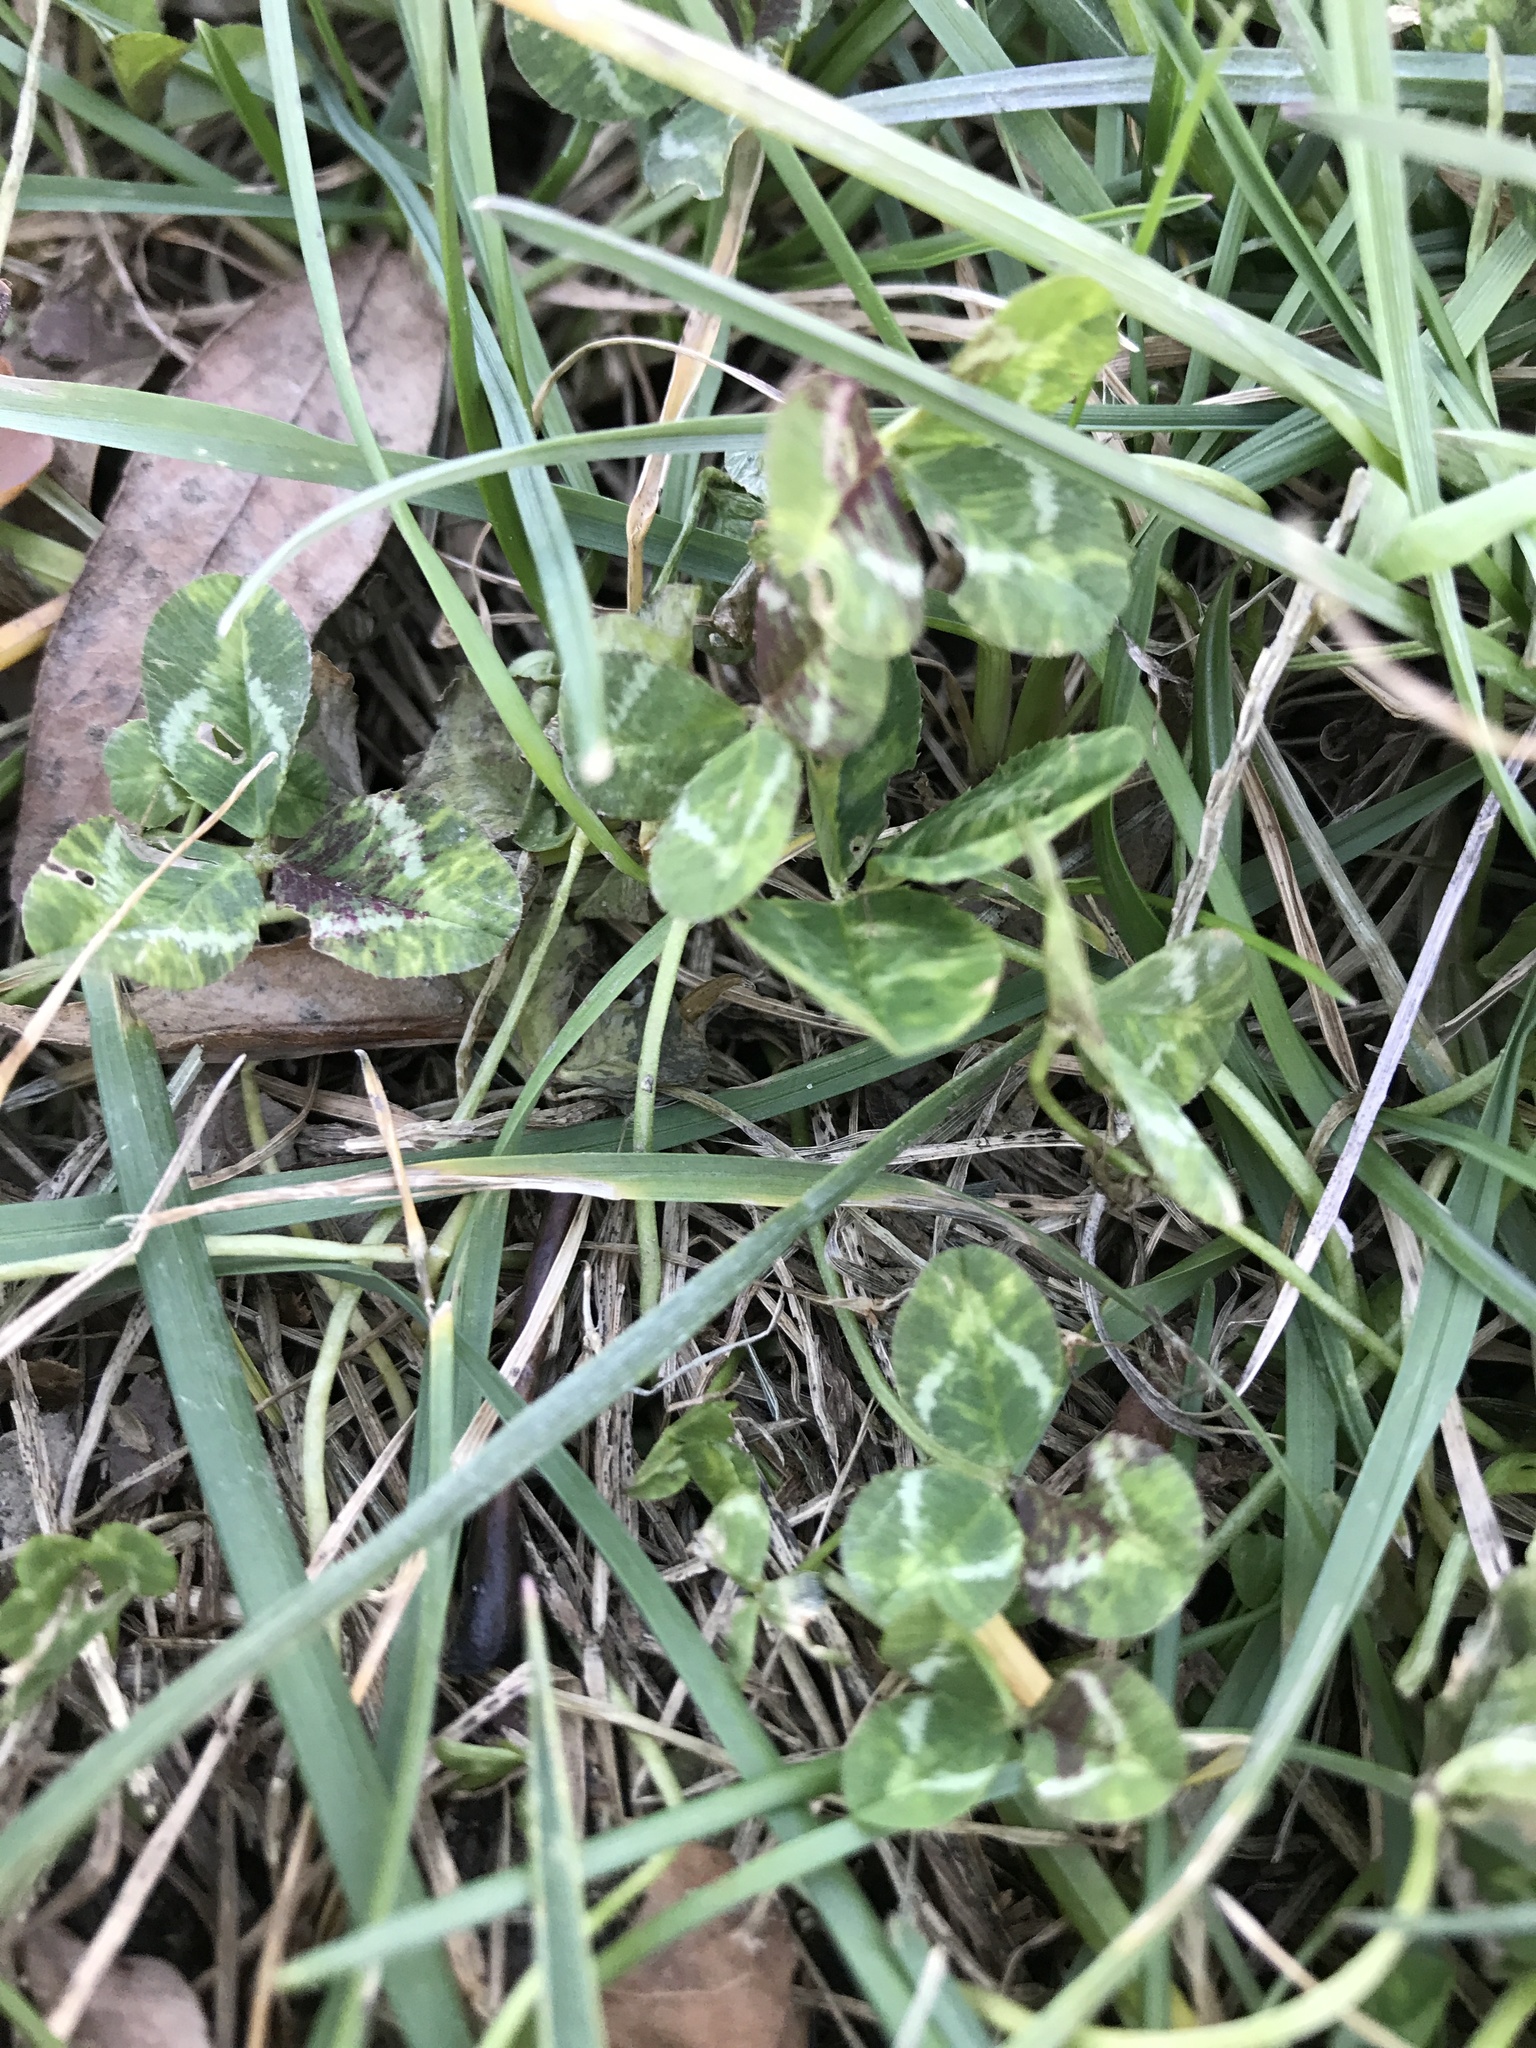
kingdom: Plantae
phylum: Tracheophyta
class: Magnoliopsida
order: Fabales
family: Fabaceae
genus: Trifolium
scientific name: Trifolium repens
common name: White clover
